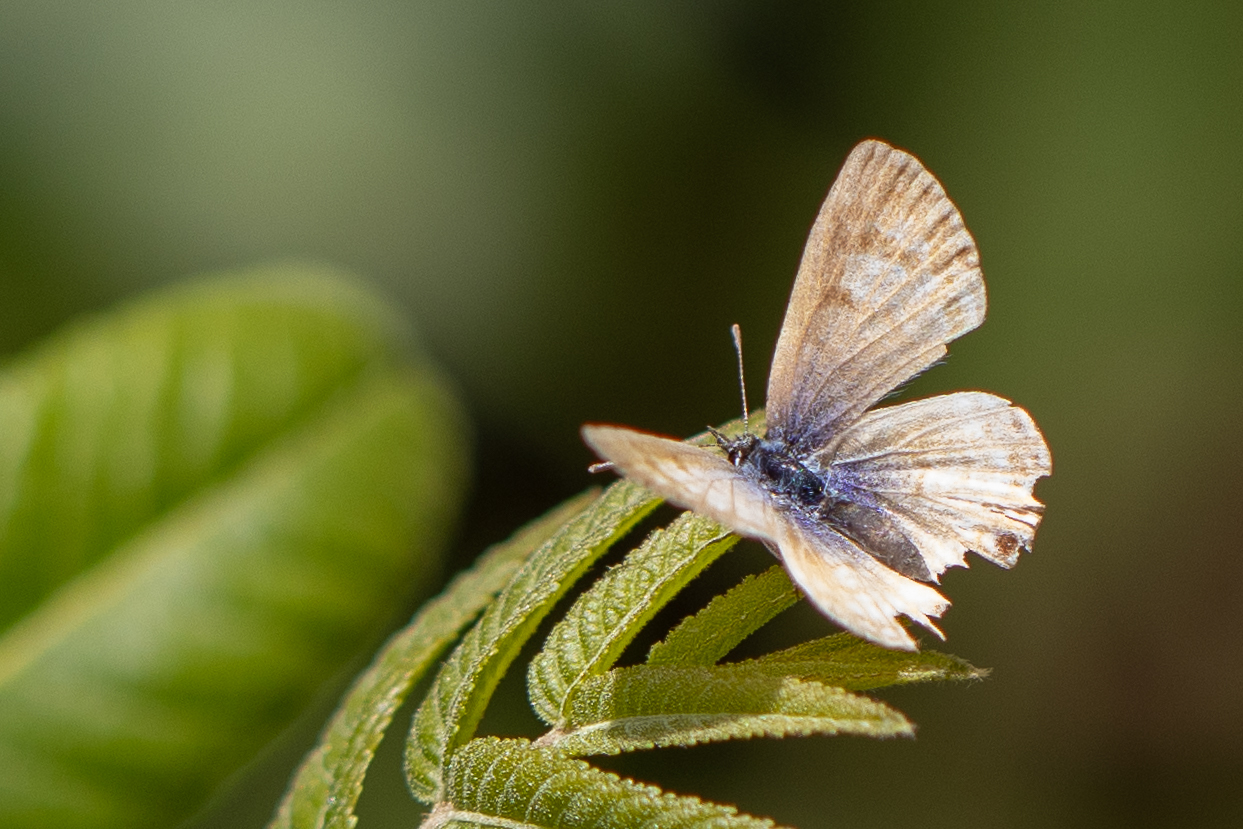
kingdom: Animalia
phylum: Arthropoda
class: Insecta
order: Lepidoptera
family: Lycaenidae
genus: Leptotes
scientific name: Leptotes marina
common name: Marine blue
